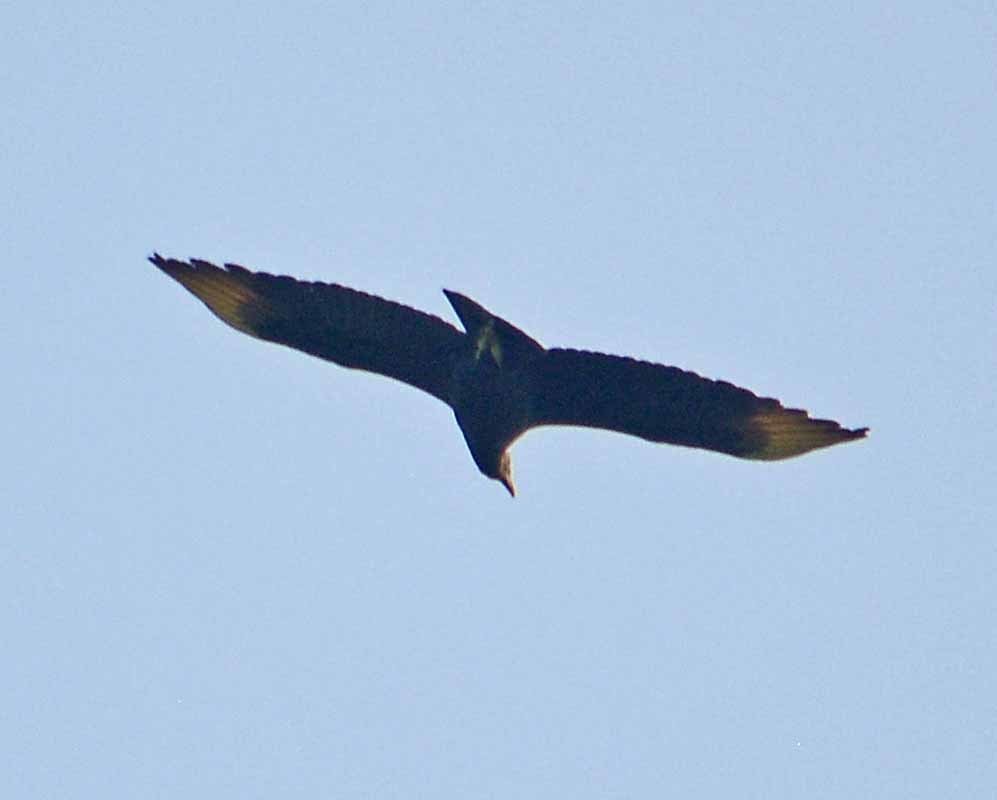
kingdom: Animalia
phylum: Chordata
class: Aves
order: Accipitriformes
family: Cathartidae
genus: Coragyps
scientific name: Coragyps atratus
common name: Black vulture
